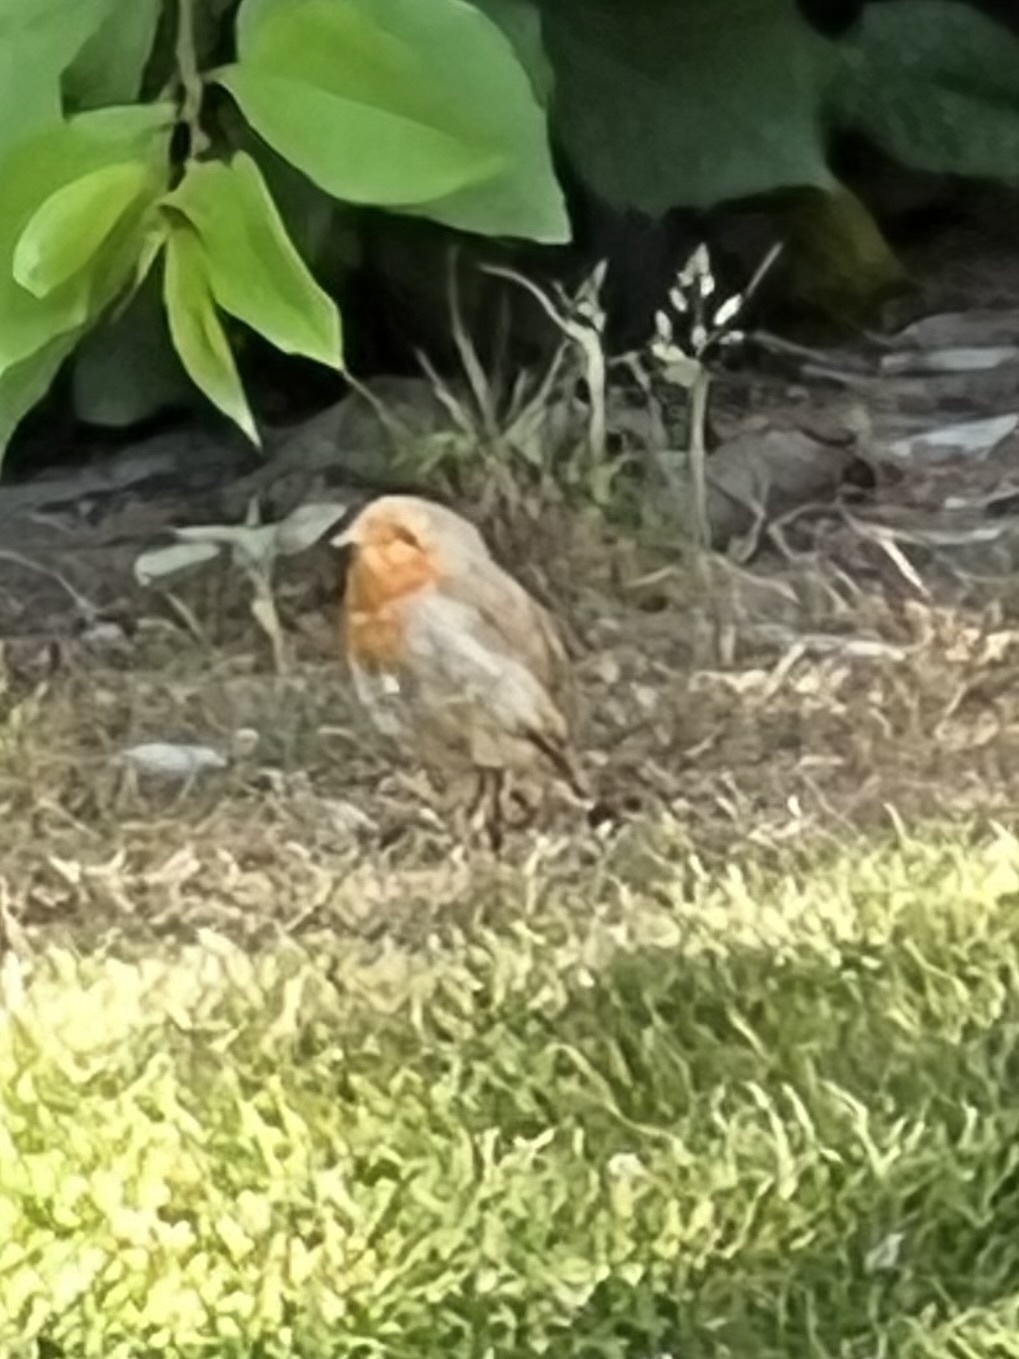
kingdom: Animalia
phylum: Chordata
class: Aves
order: Passeriformes
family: Muscicapidae
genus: Erithacus
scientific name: Erithacus rubecula
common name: European robin
